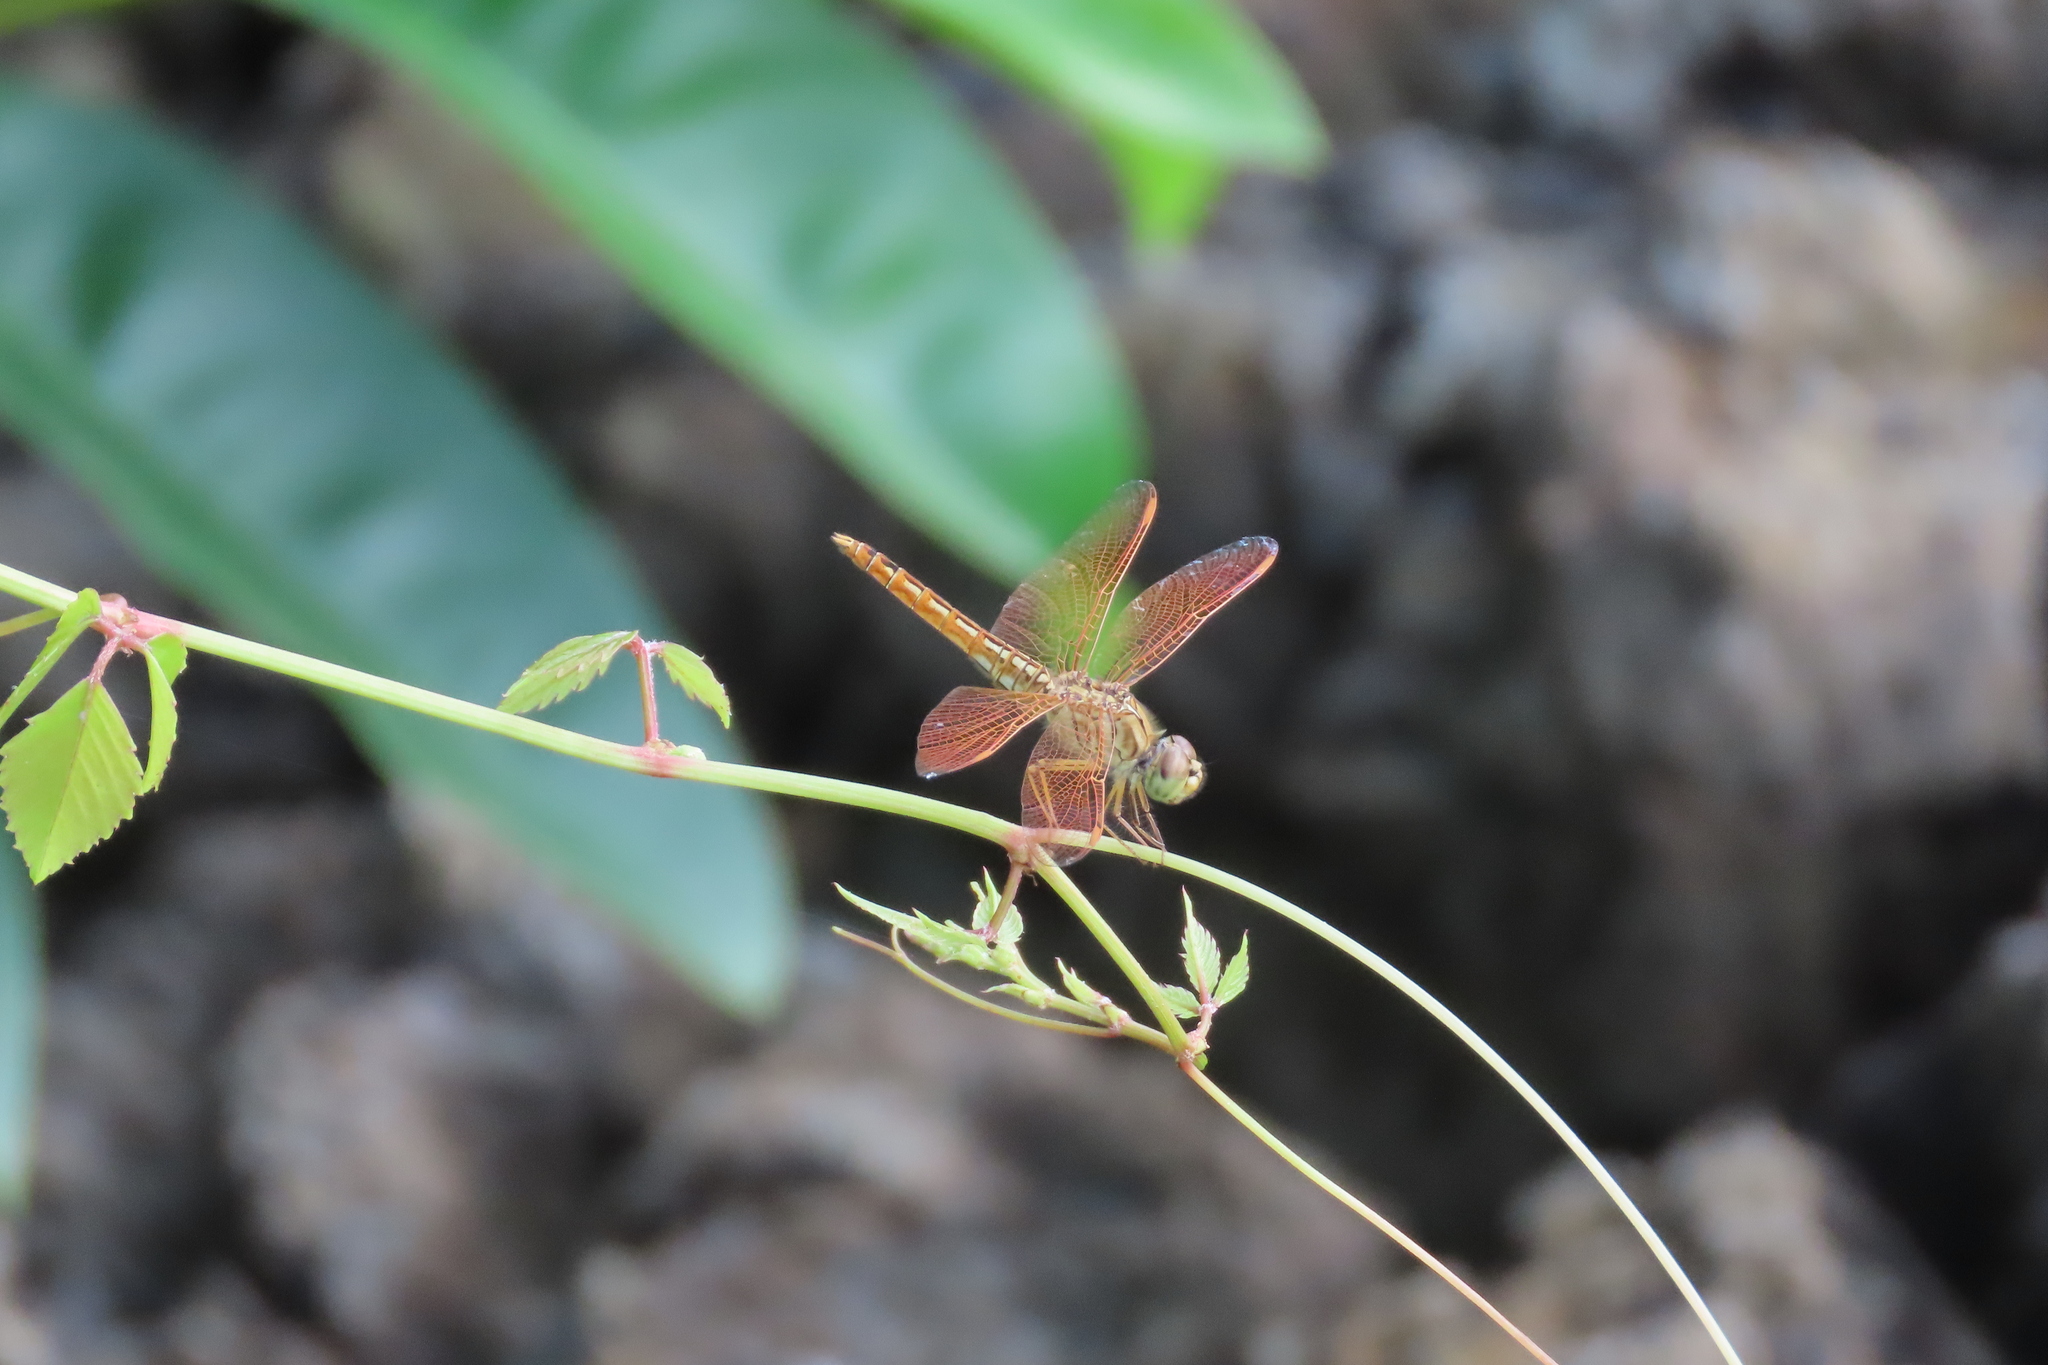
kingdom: Animalia
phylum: Arthropoda
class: Insecta
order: Odonata
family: Libellulidae
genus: Brachythemis
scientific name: Brachythemis contaminata
